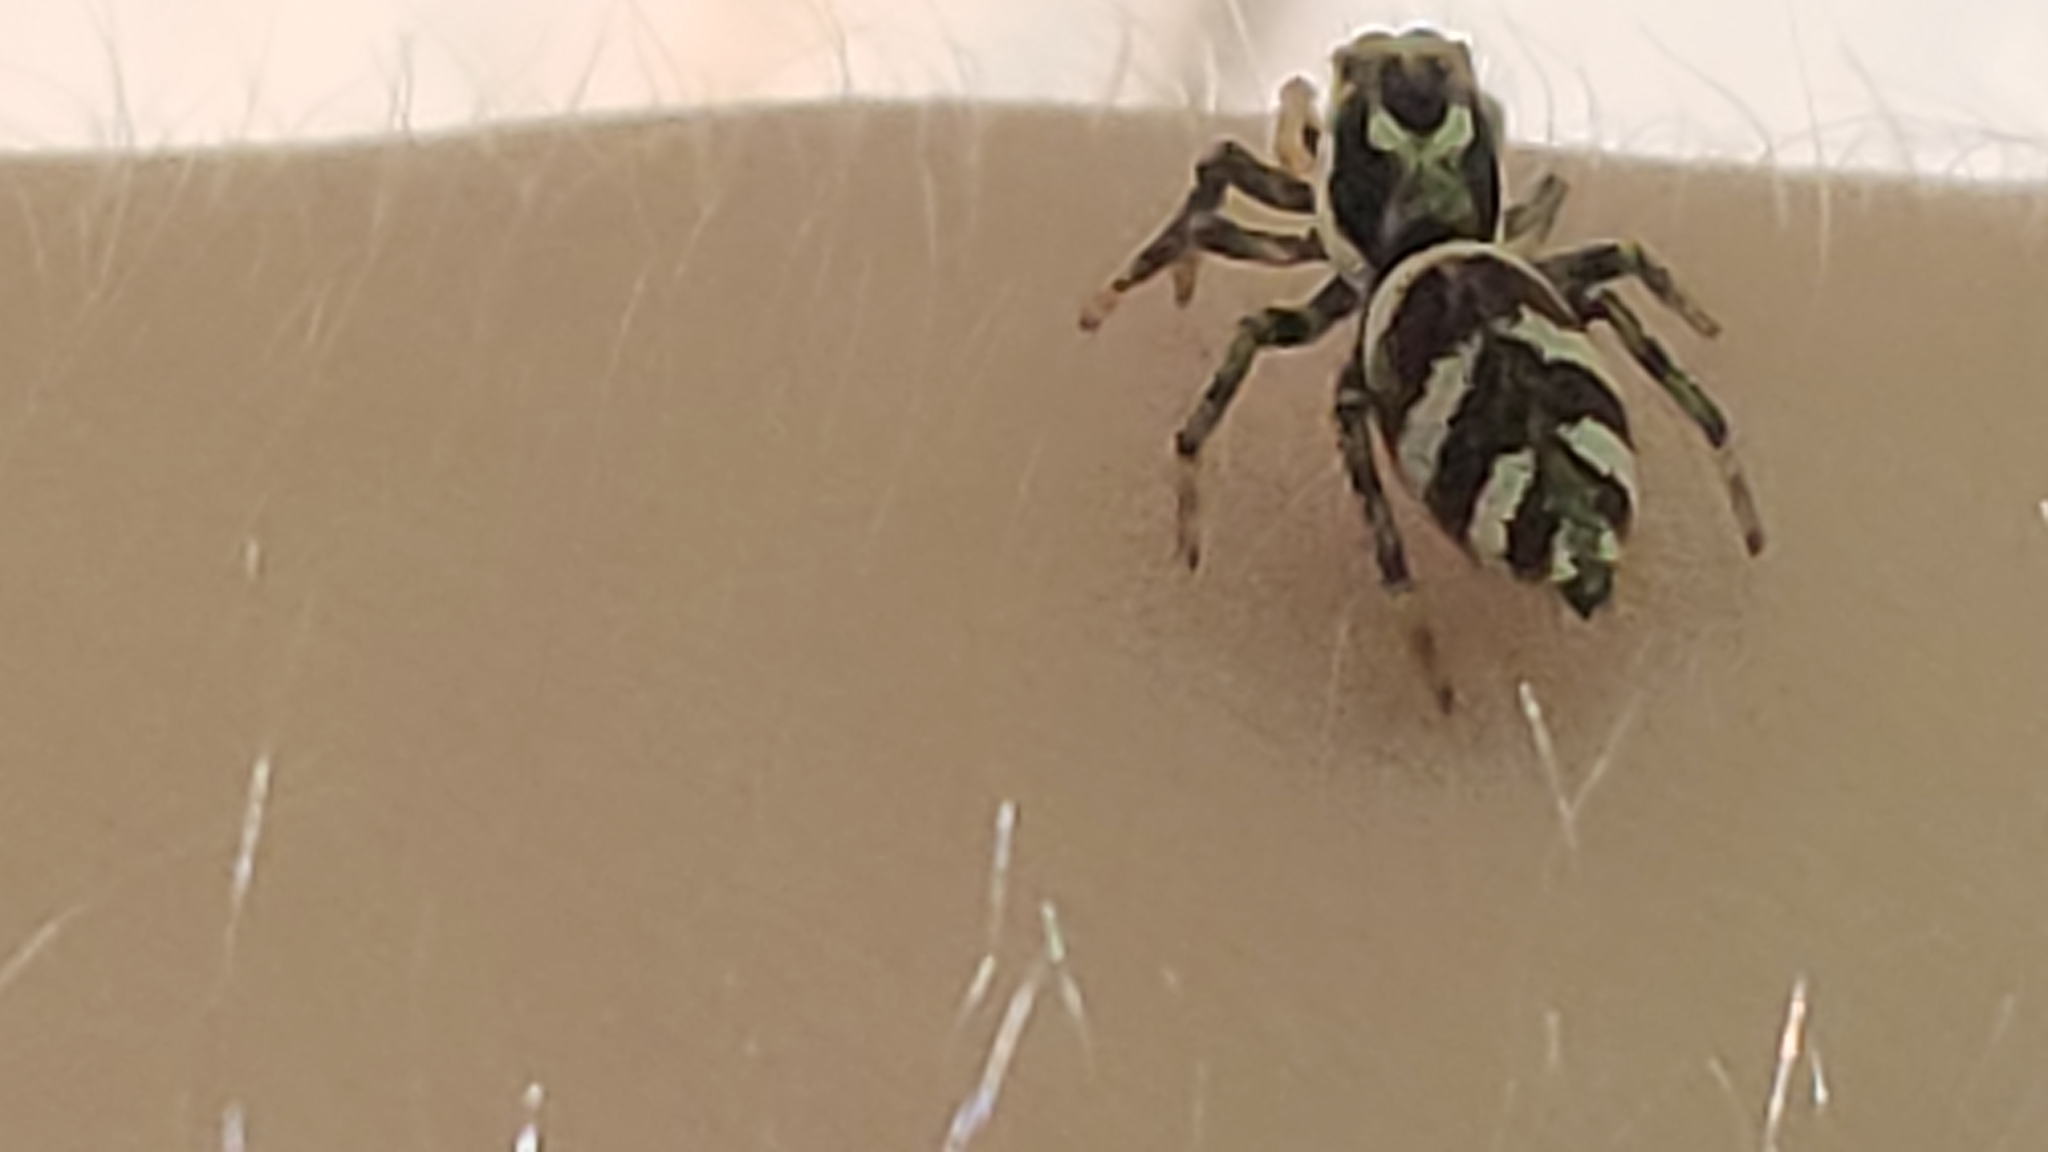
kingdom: Animalia
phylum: Arthropoda
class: Arachnida
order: Araneae
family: Salticidae
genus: Salticus
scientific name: Salticus scenicus
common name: Zebra jumper
